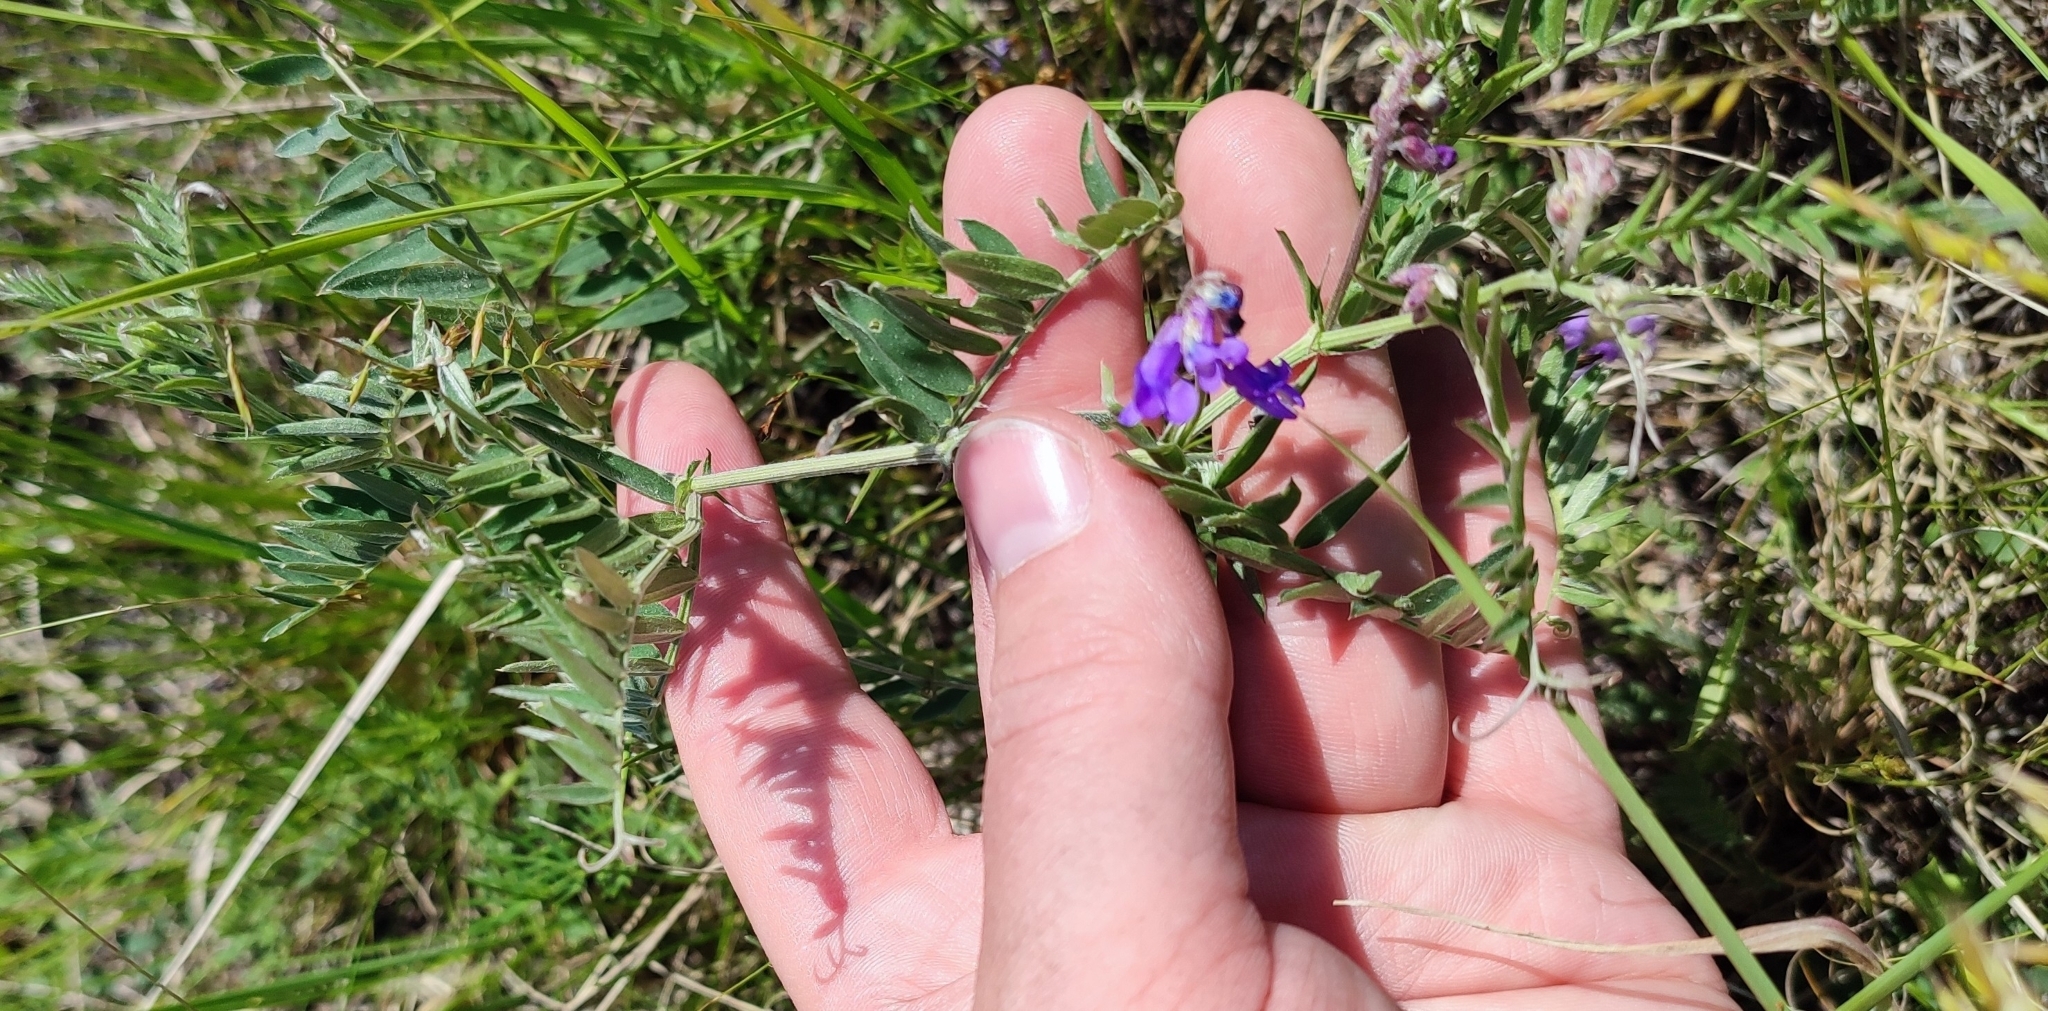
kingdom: Plantae
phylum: Tracheophyta
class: Magnoliopsida
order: Fabales
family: Fabaceae
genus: Vicia
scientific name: Vicia cracca
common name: Bird vetch
